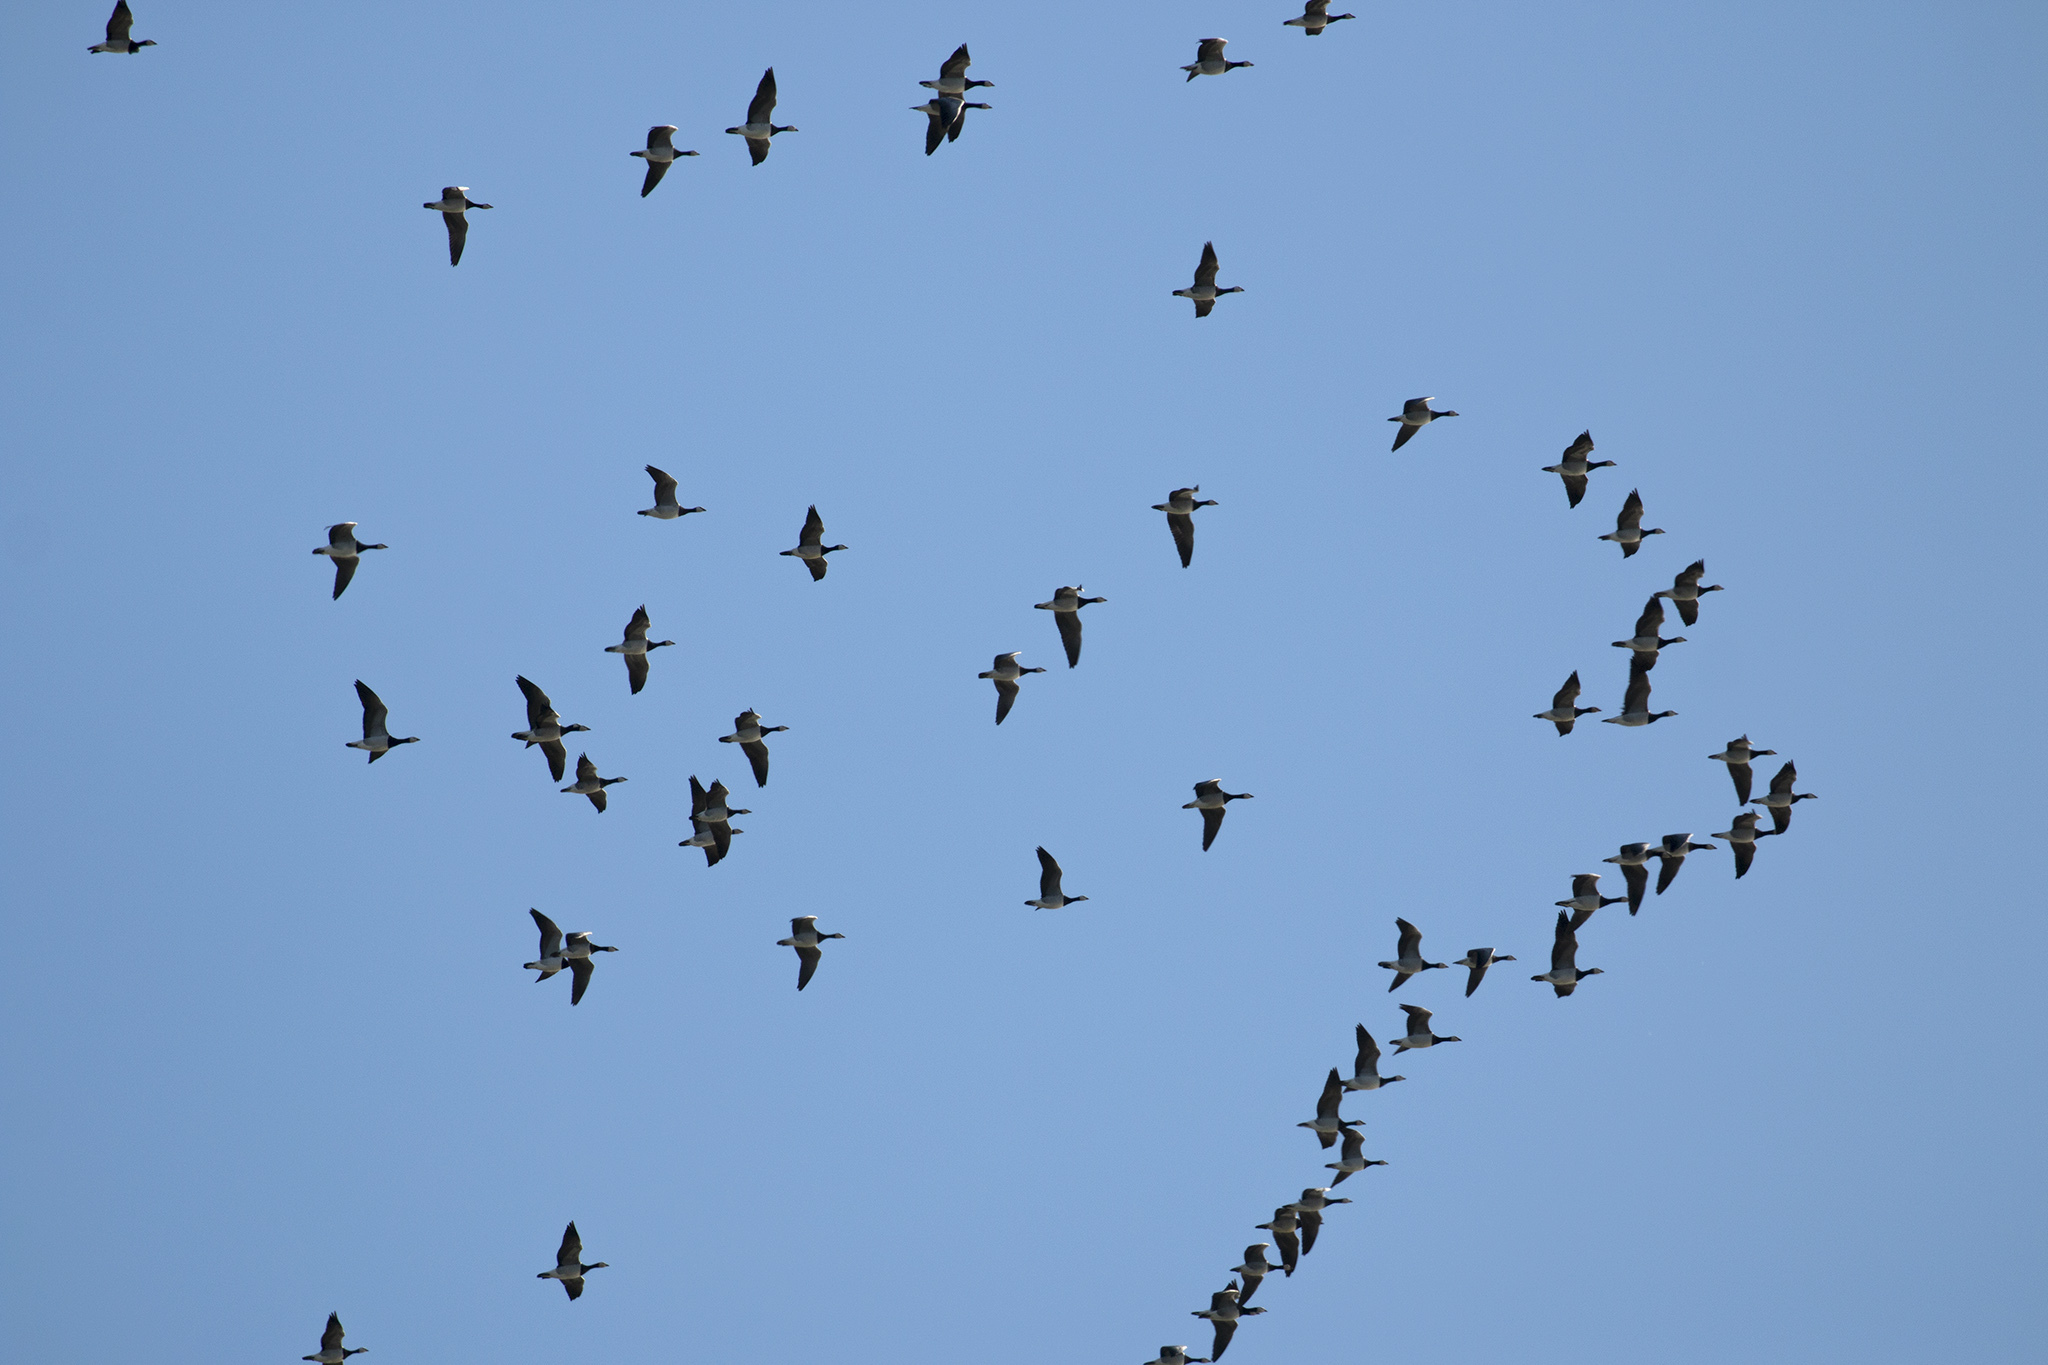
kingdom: Animalia
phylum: Chordata
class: Aves
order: Anseriformes
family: Anatidae
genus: Branta
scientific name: Branta leucopsis
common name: Barnacle goose
